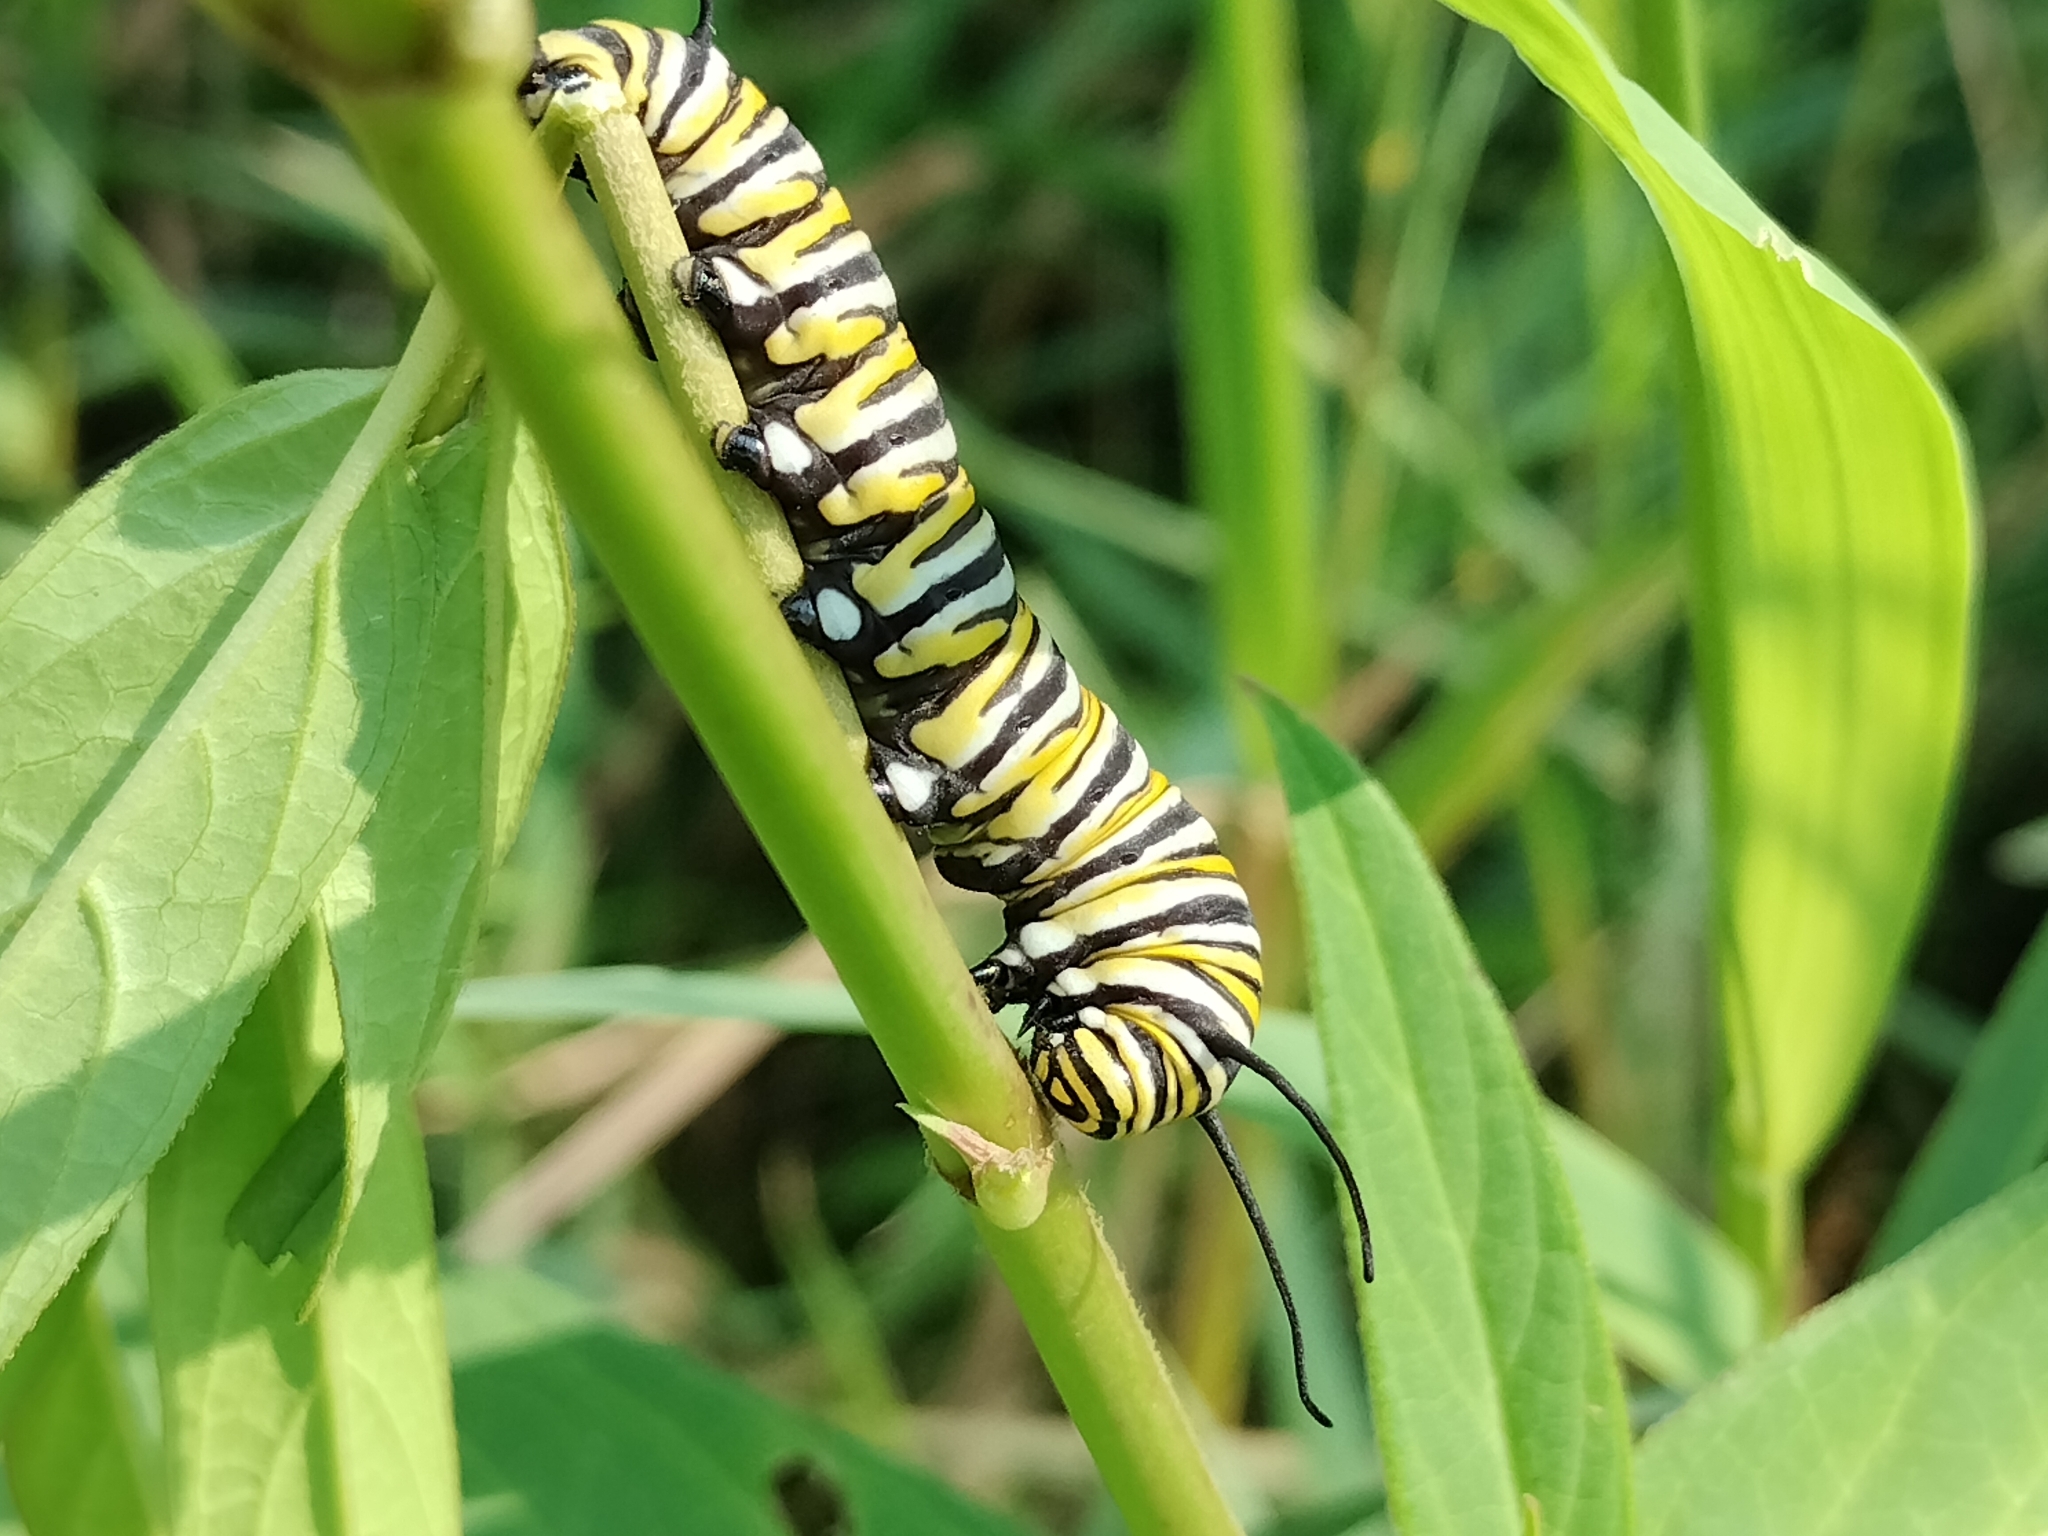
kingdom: Animalia
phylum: Arthropoda
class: Insecta
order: Lepidoptera
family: Nymphalidae
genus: Danaus
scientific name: Danaus plexippus
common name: Monarch
